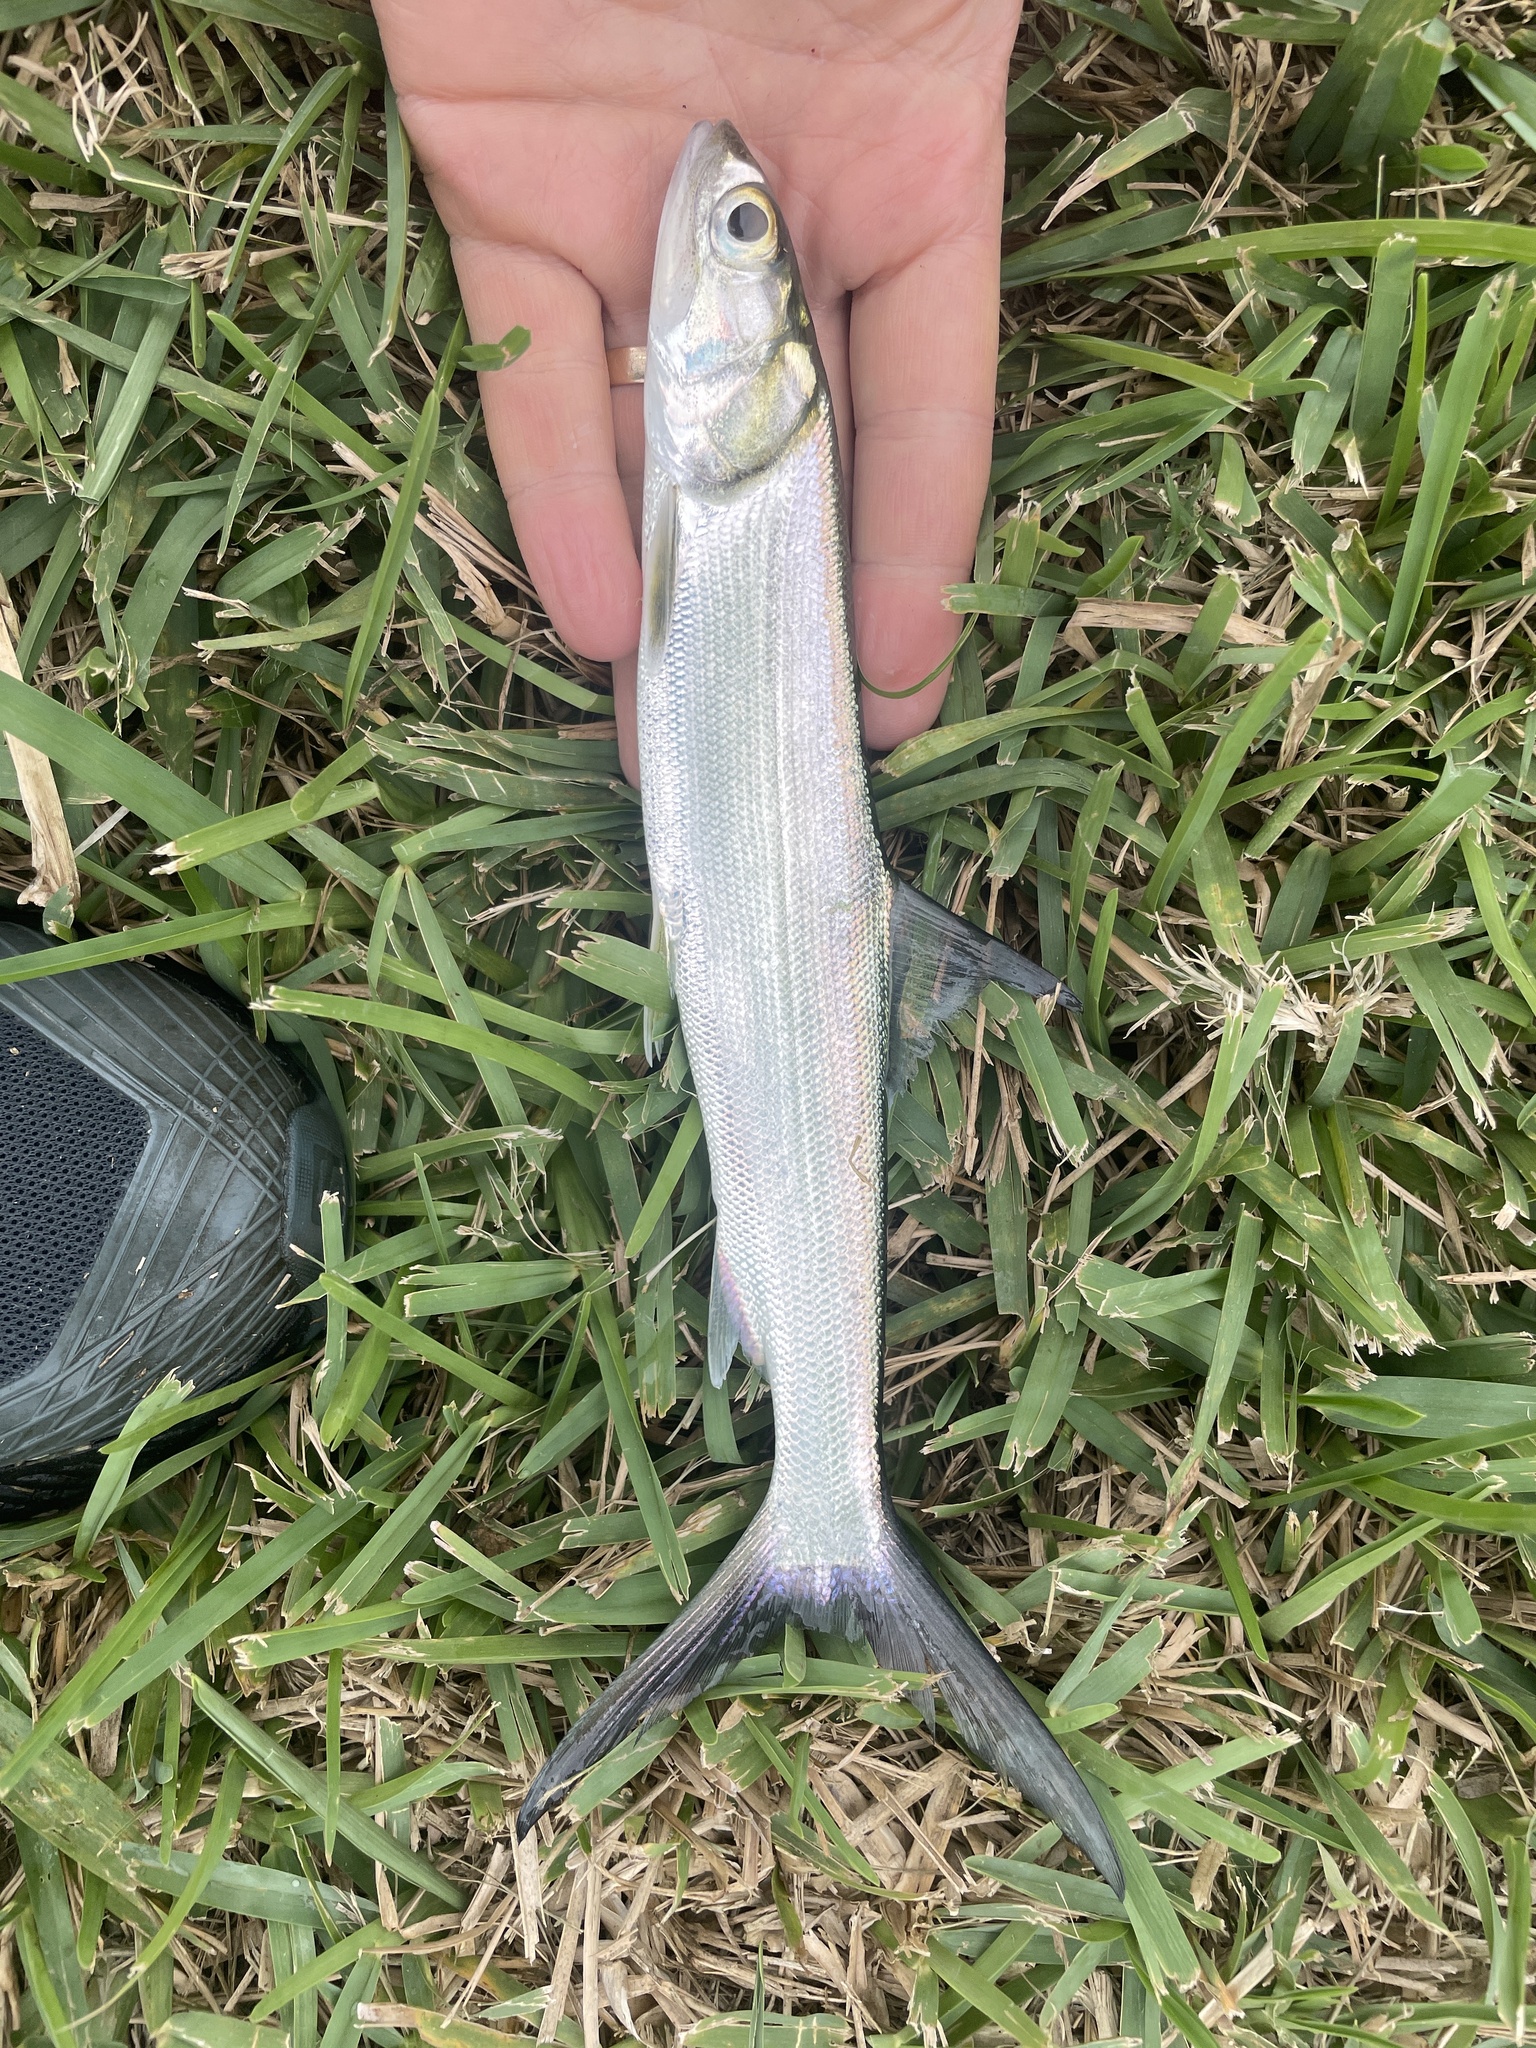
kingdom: Animalia
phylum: Chordata
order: Elopiformes
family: Elopidae
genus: Elops
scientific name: Elops saurus
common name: Ladyfish
